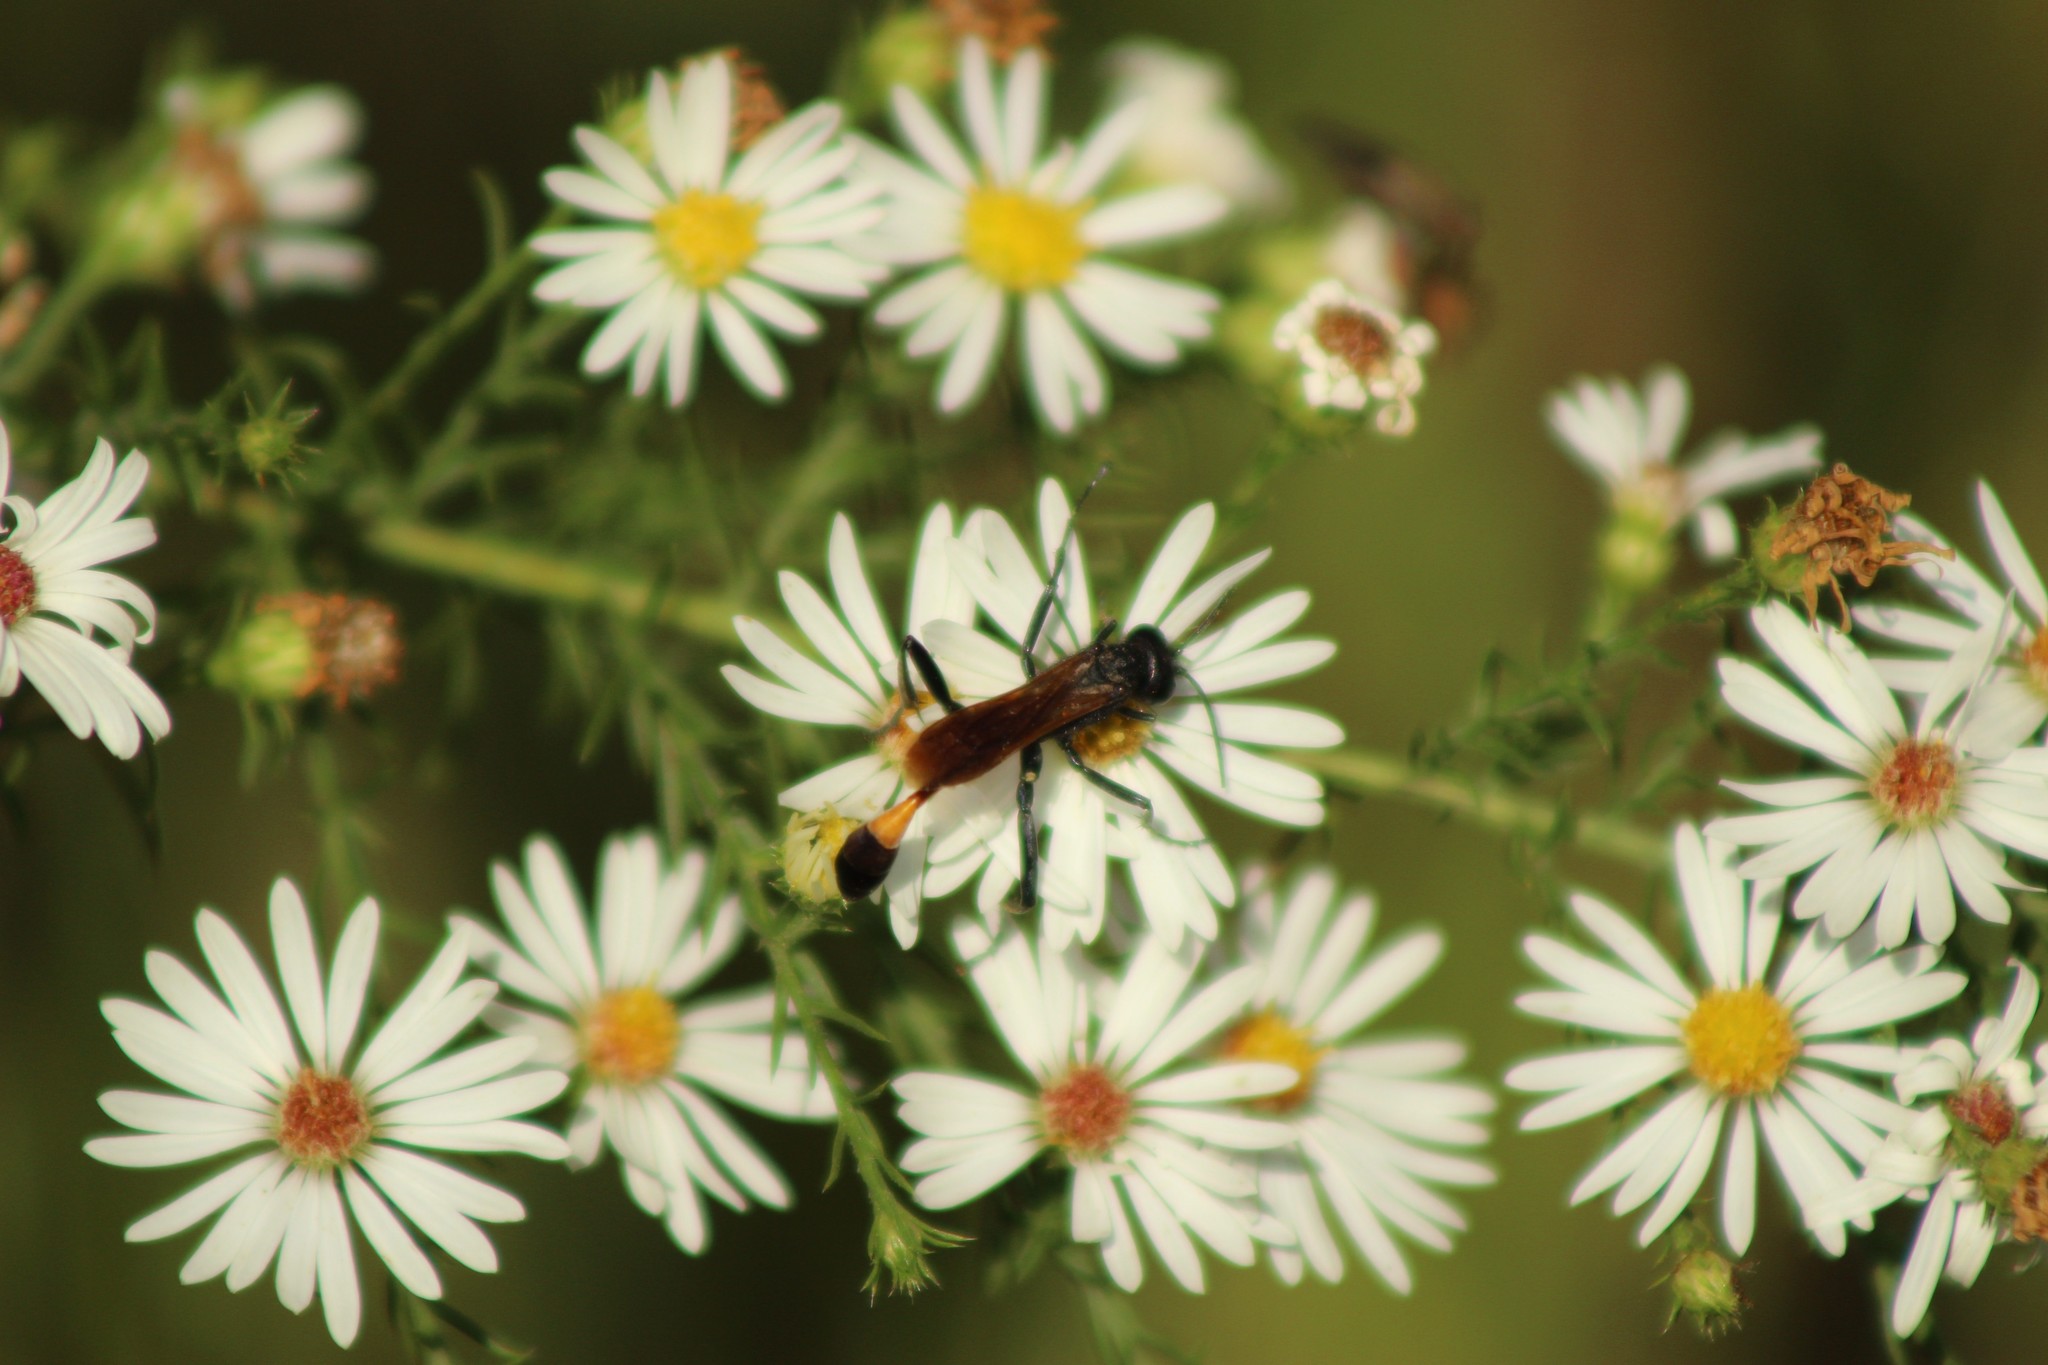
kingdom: Animalia
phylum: Arthropoda
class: Insecta
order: Hymenoptera
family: Sphecidae
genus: Ammophila
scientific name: Ammophila pictipennis
